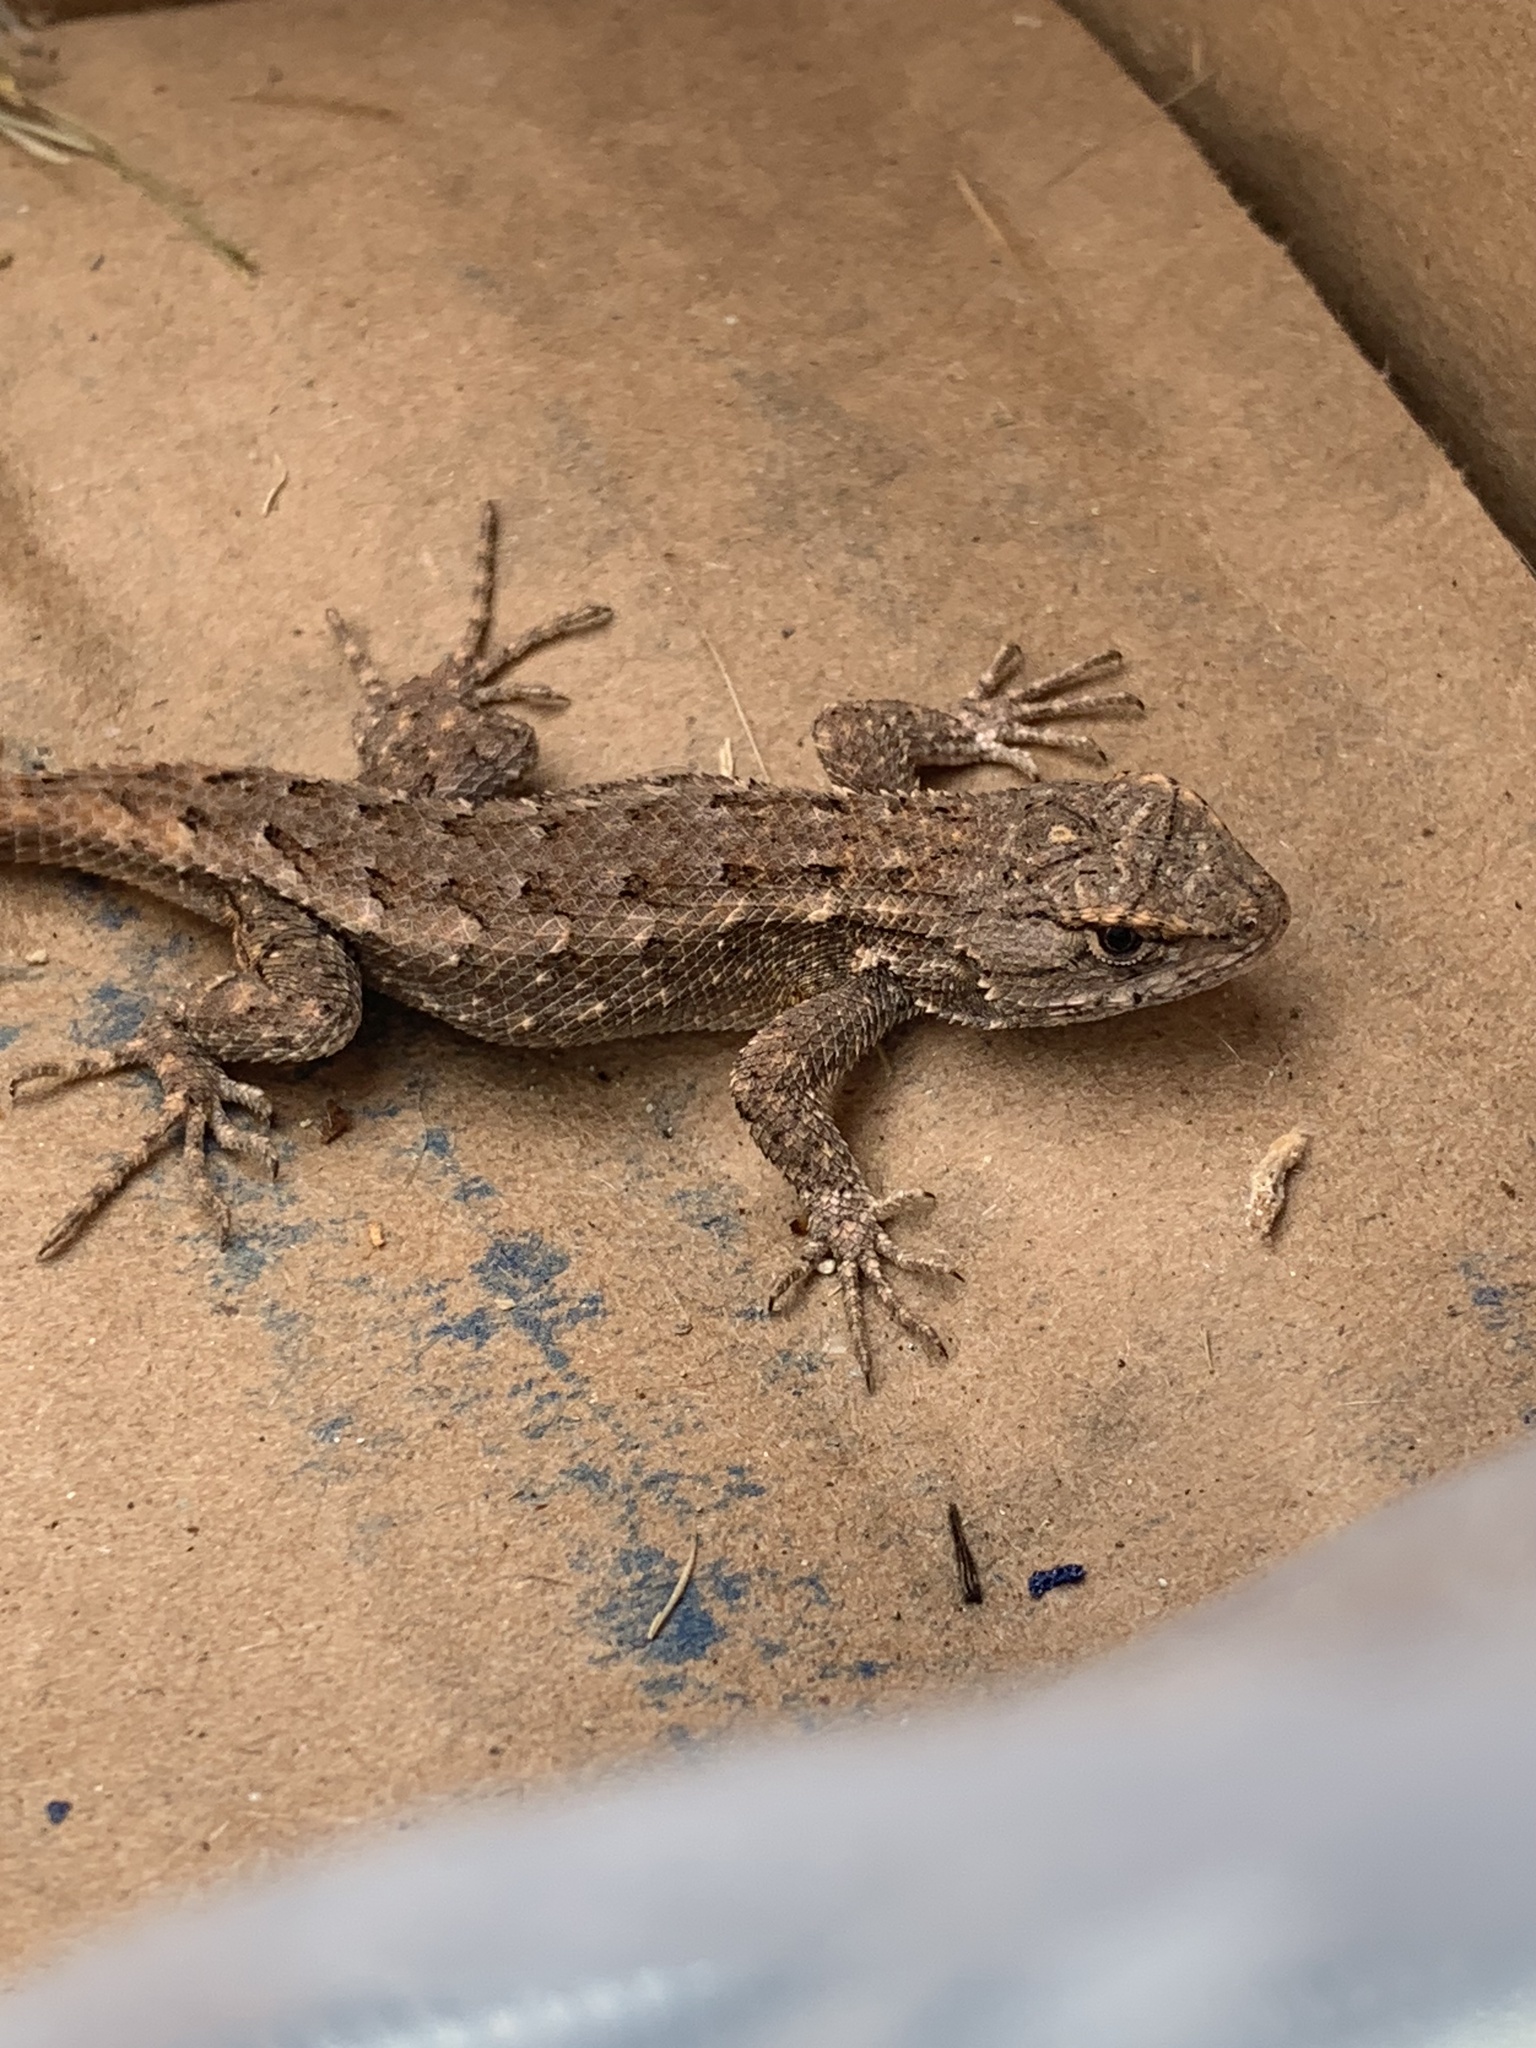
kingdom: Animalia
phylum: Chordata
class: Squamata
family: Phrynosomatidae
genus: Sceloporus
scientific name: Sceloporus occidentalis
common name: Western fence lizard
